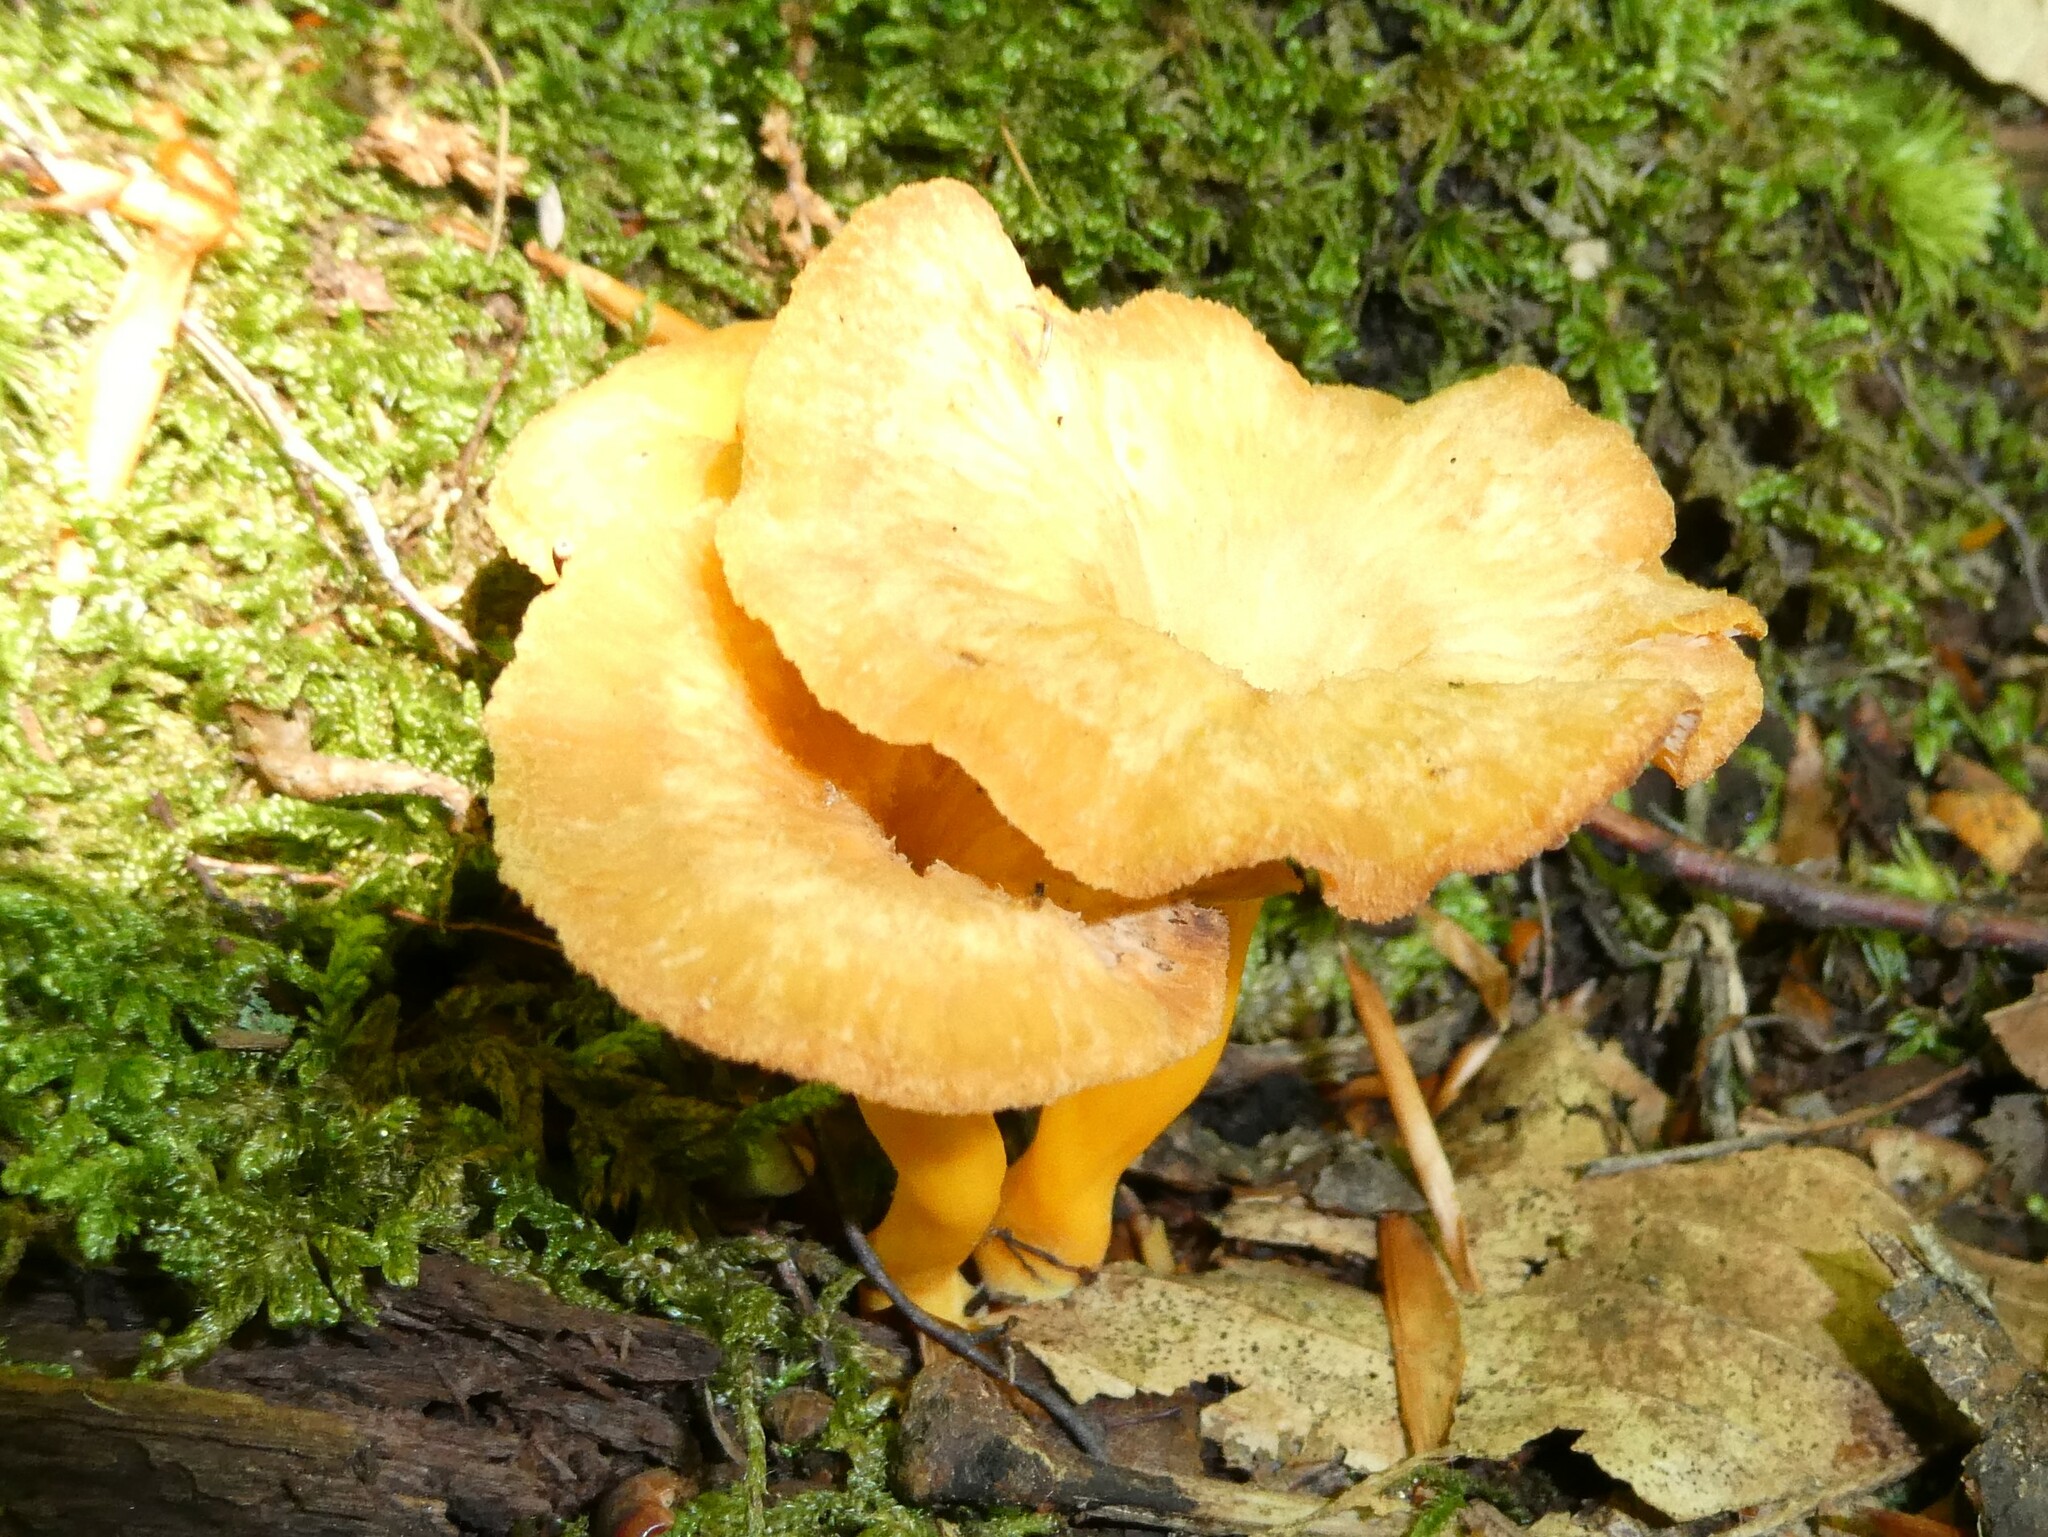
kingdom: Fungi
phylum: Basidiomycota
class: Agaricomycetes
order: Cantharellales
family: Hydnaceae
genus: Craterellus
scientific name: Craterellus ignicolor
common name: Flame chanterelle
